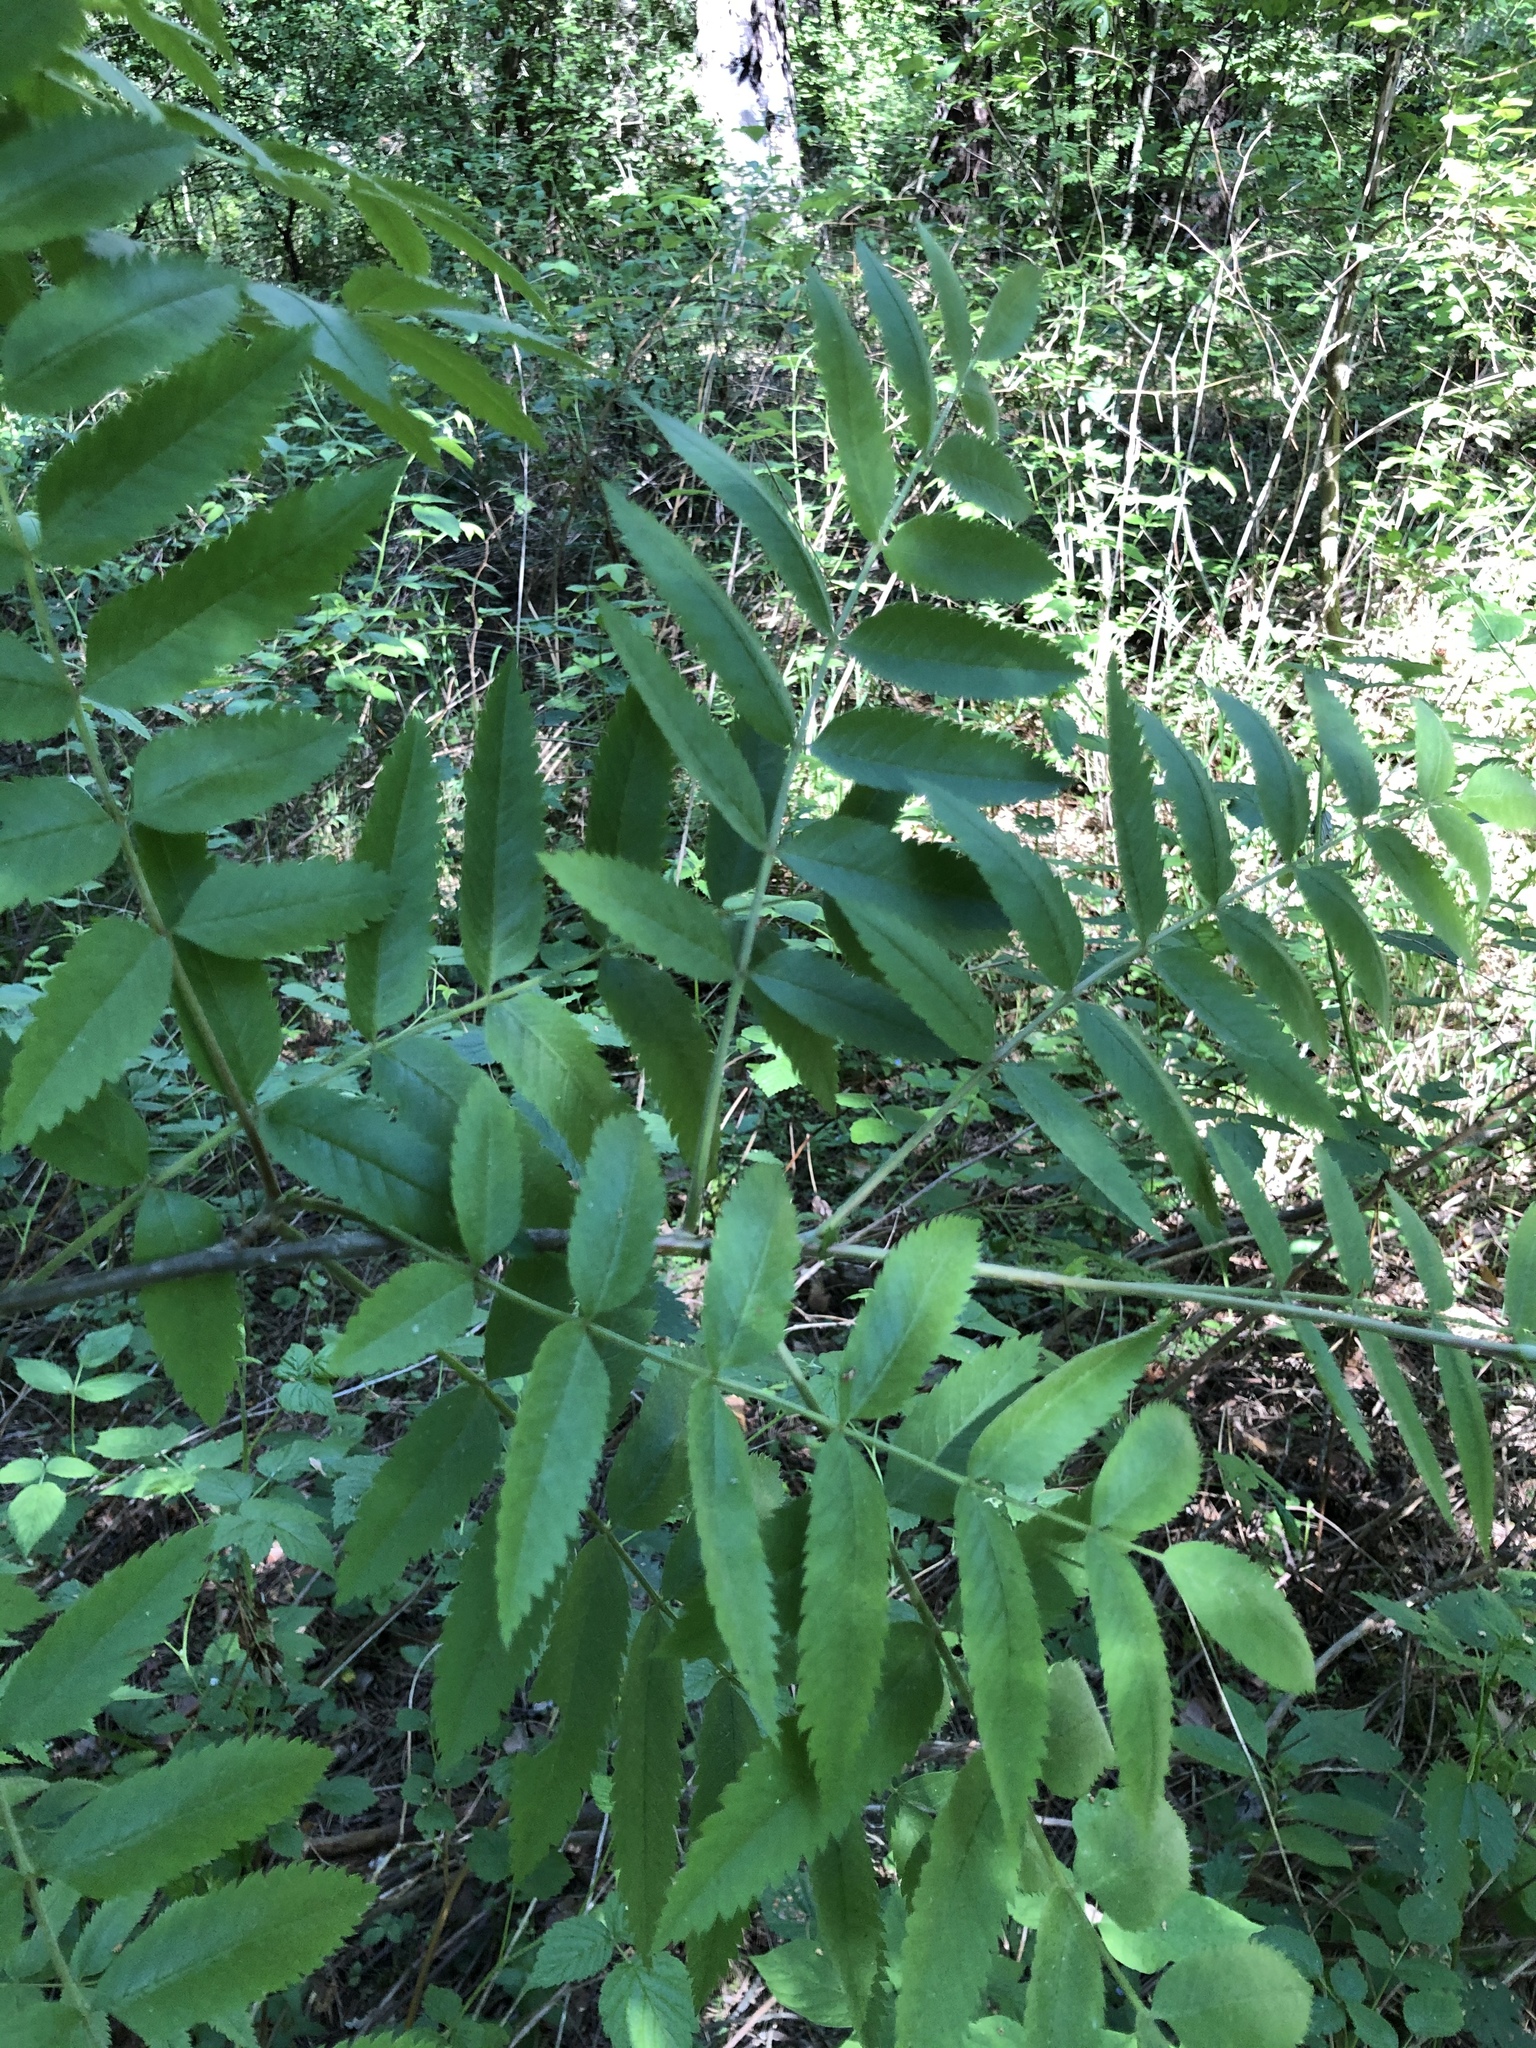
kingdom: Plantae
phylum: Tracheophyta
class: Magnoliopsida
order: Rosales
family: Rosaceae
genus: Sorbus
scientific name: Sorbus aucuparia
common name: Rowan
